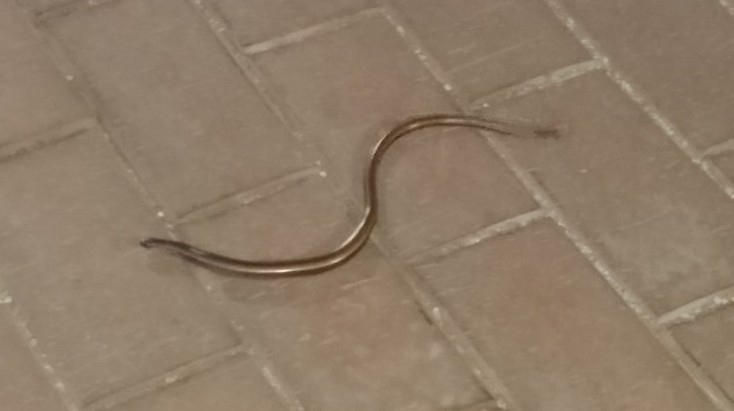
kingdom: Animalia
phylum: Chordata
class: Squamata
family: Anguidae
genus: Anguis
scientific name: Anguis fragilis
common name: Slow worm
